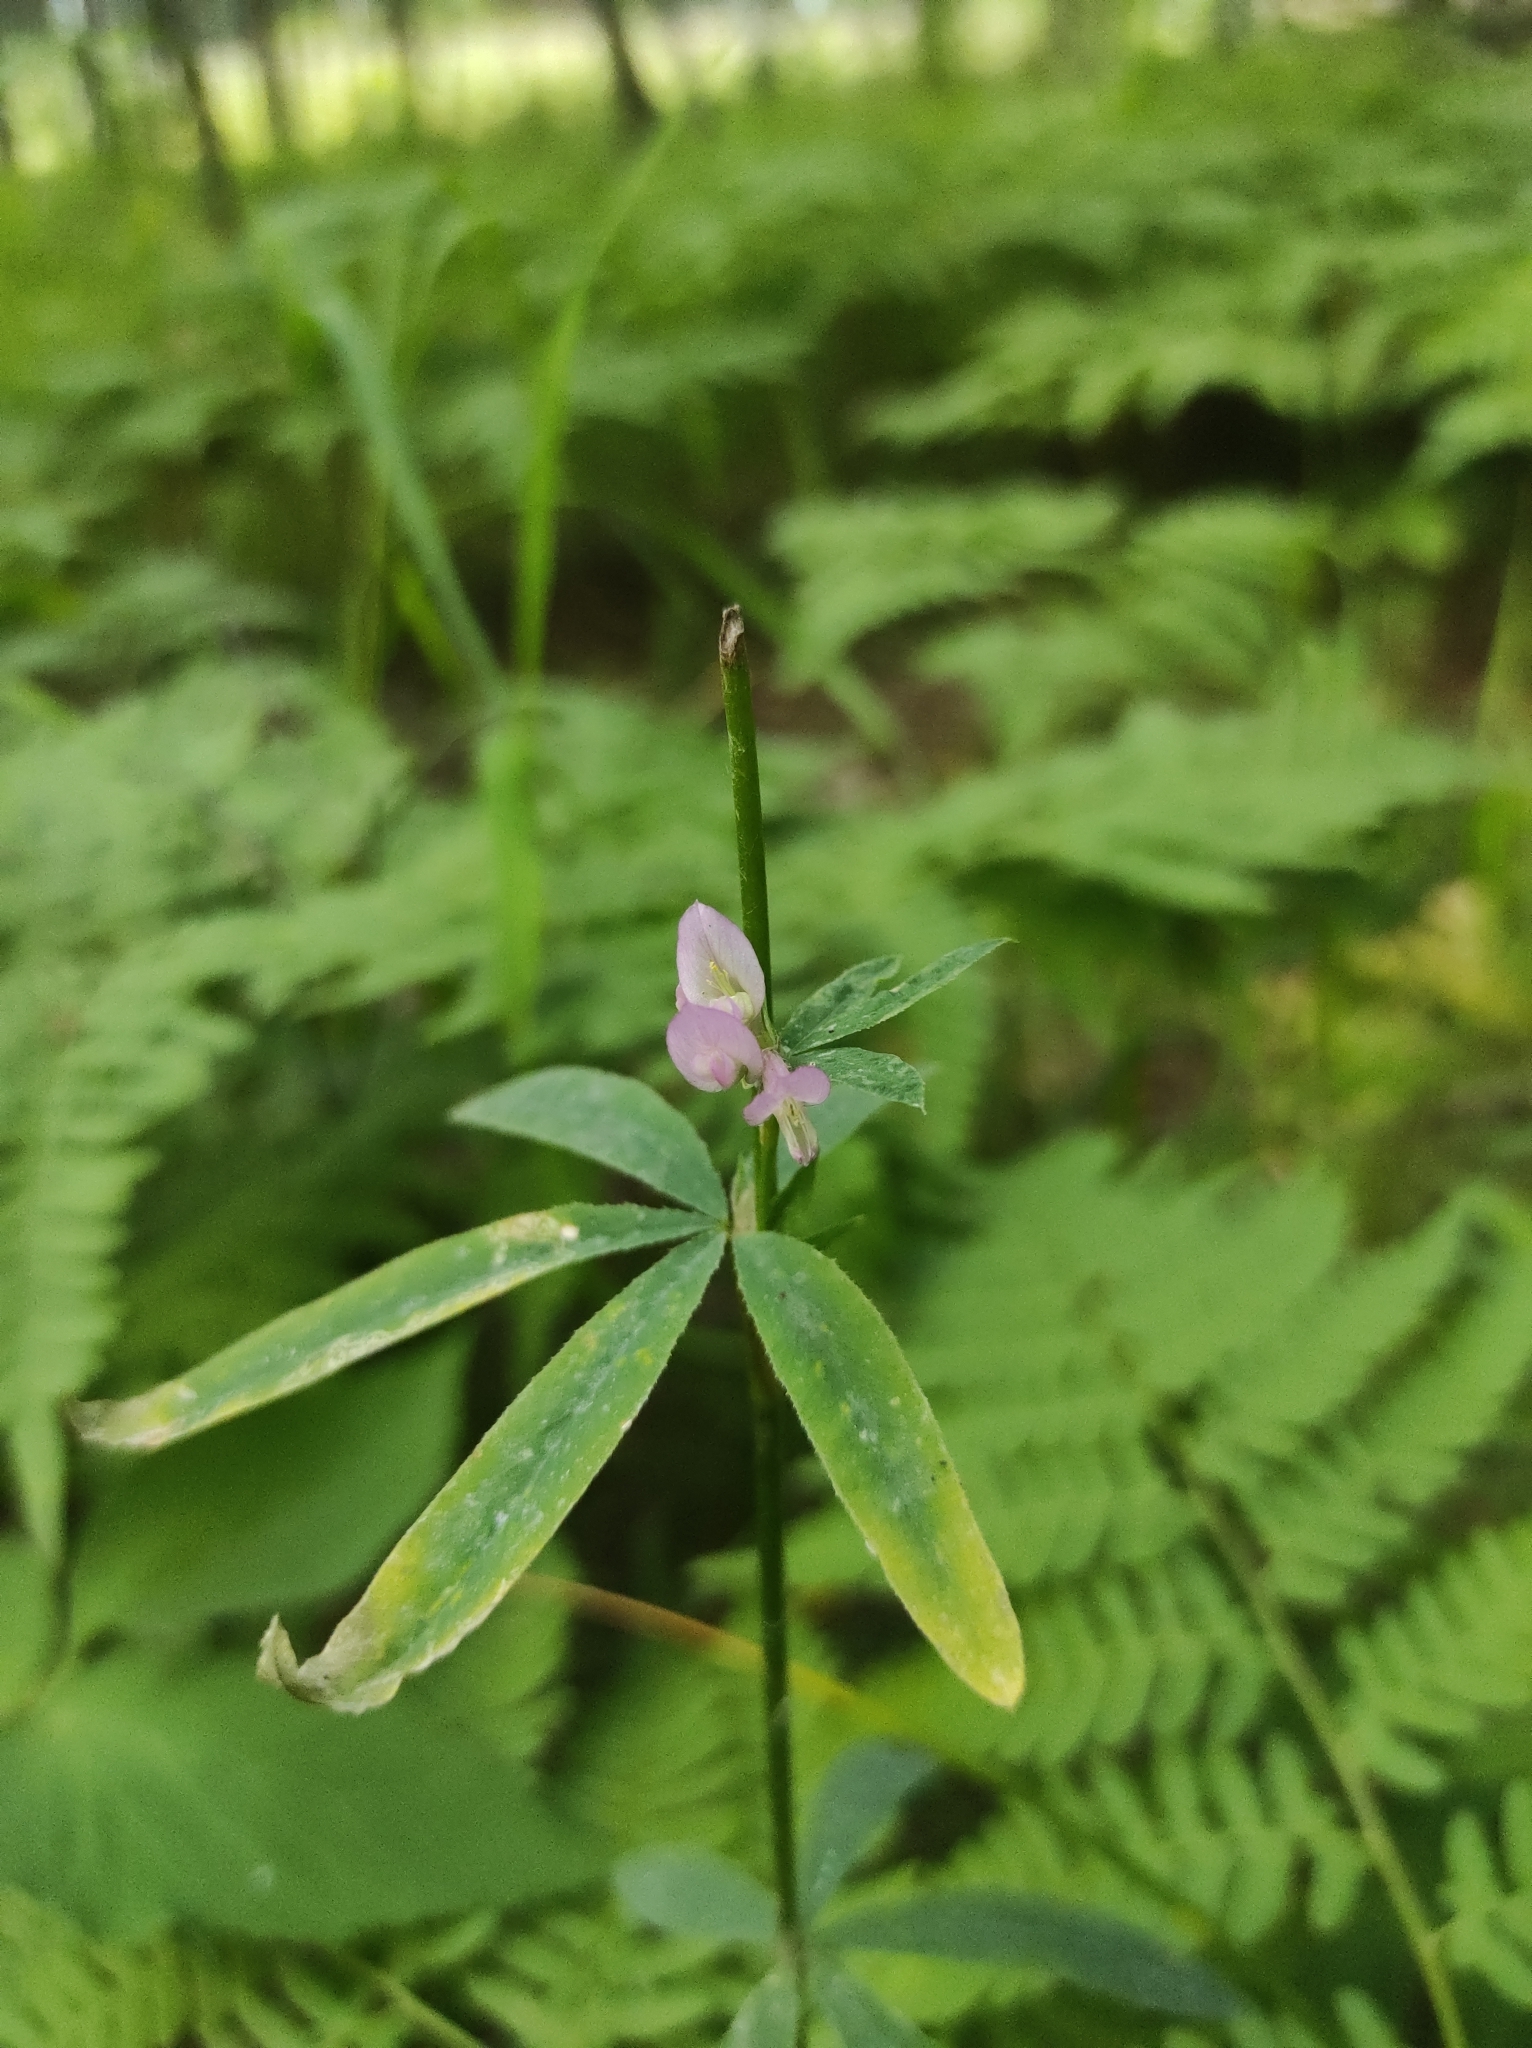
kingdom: Plantae
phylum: Tracheophyta
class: Magnoliopsida
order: Fabales
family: Fabaceae
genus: Trifolium
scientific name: Trifolium lupinaster
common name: Lupine clover
